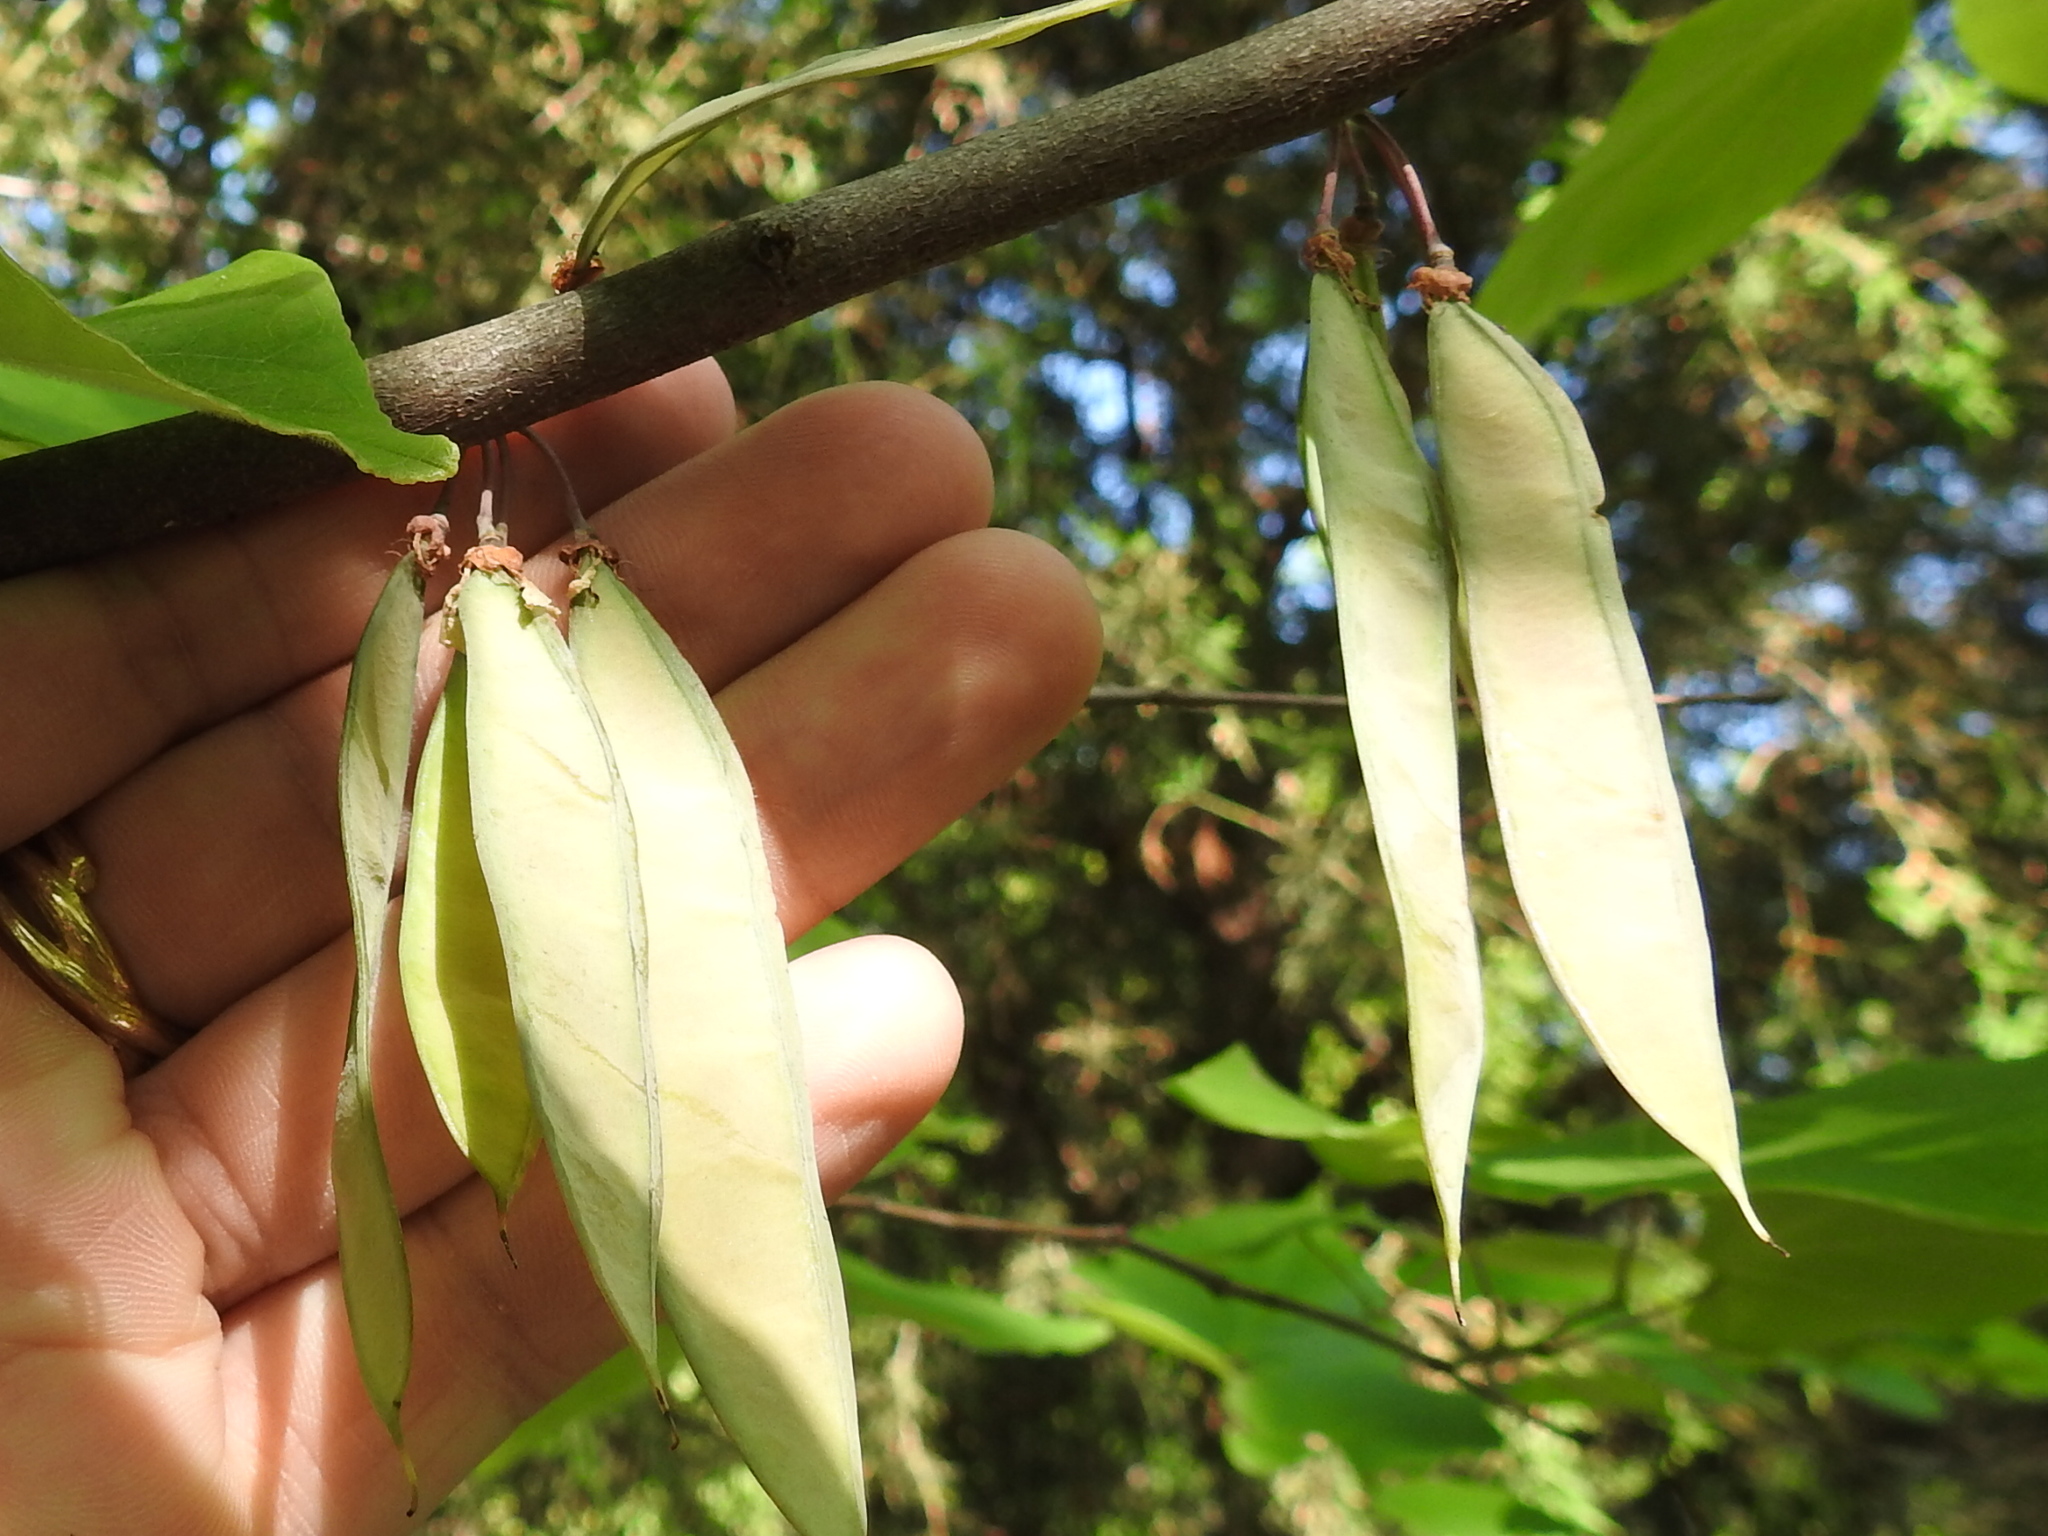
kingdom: Plantae
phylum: Tracheophyta
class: Magnoliopsida
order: Fabales
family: Fabaceae
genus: Cercis
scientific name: Cercis canadensis
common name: Eastern redbud
